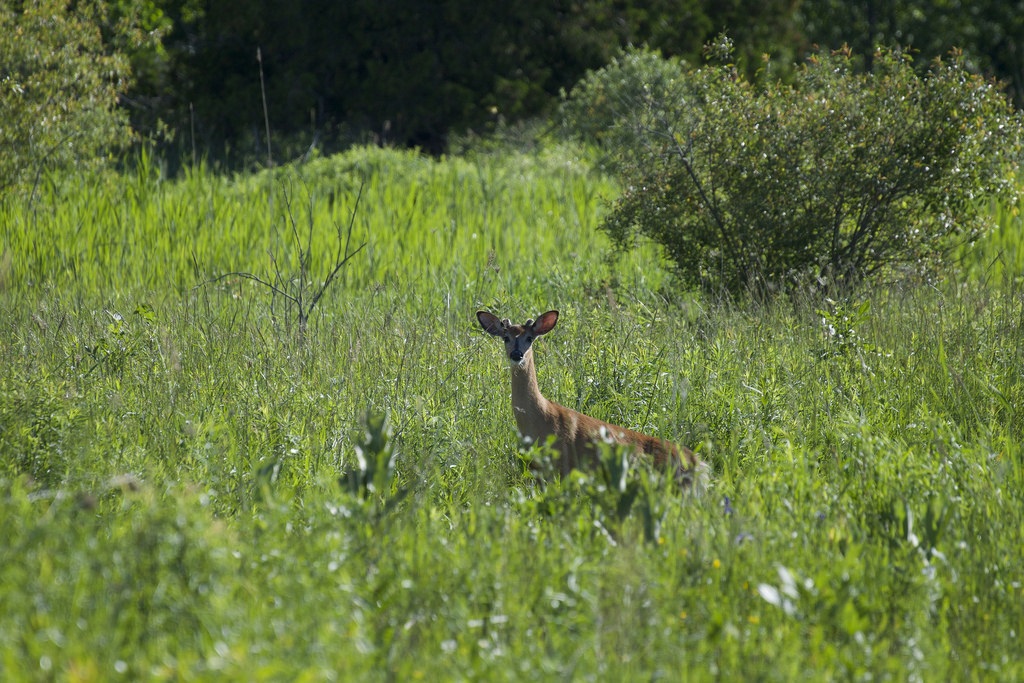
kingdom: Animalia
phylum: Chordata
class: Mammalia
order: Artiodactyla
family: Cervidae
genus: Odocoileus
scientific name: Odocoileus virginianus
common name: White-tailed deer
